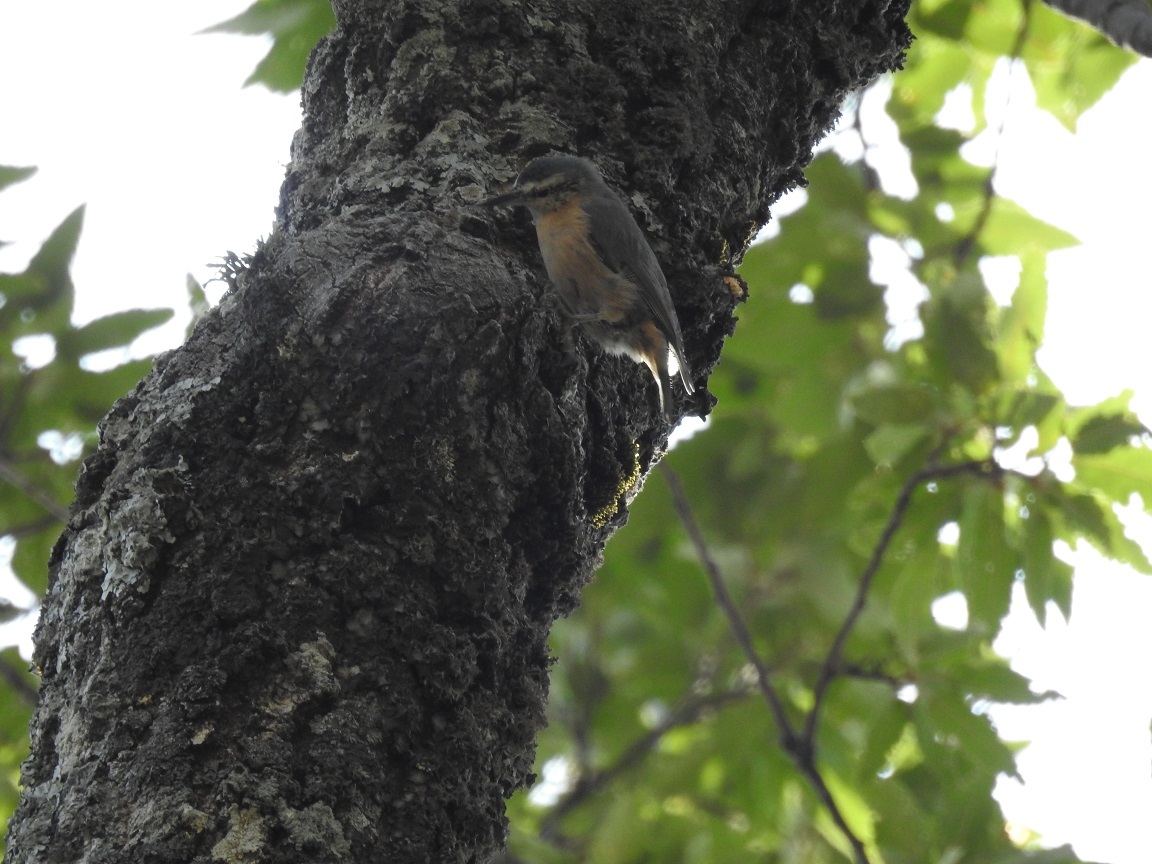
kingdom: Animalia
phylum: Chordata
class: Aves
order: Passeriformes
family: Sittidae
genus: Sitta
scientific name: Sitta ledanti
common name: Algerian nuthatch
